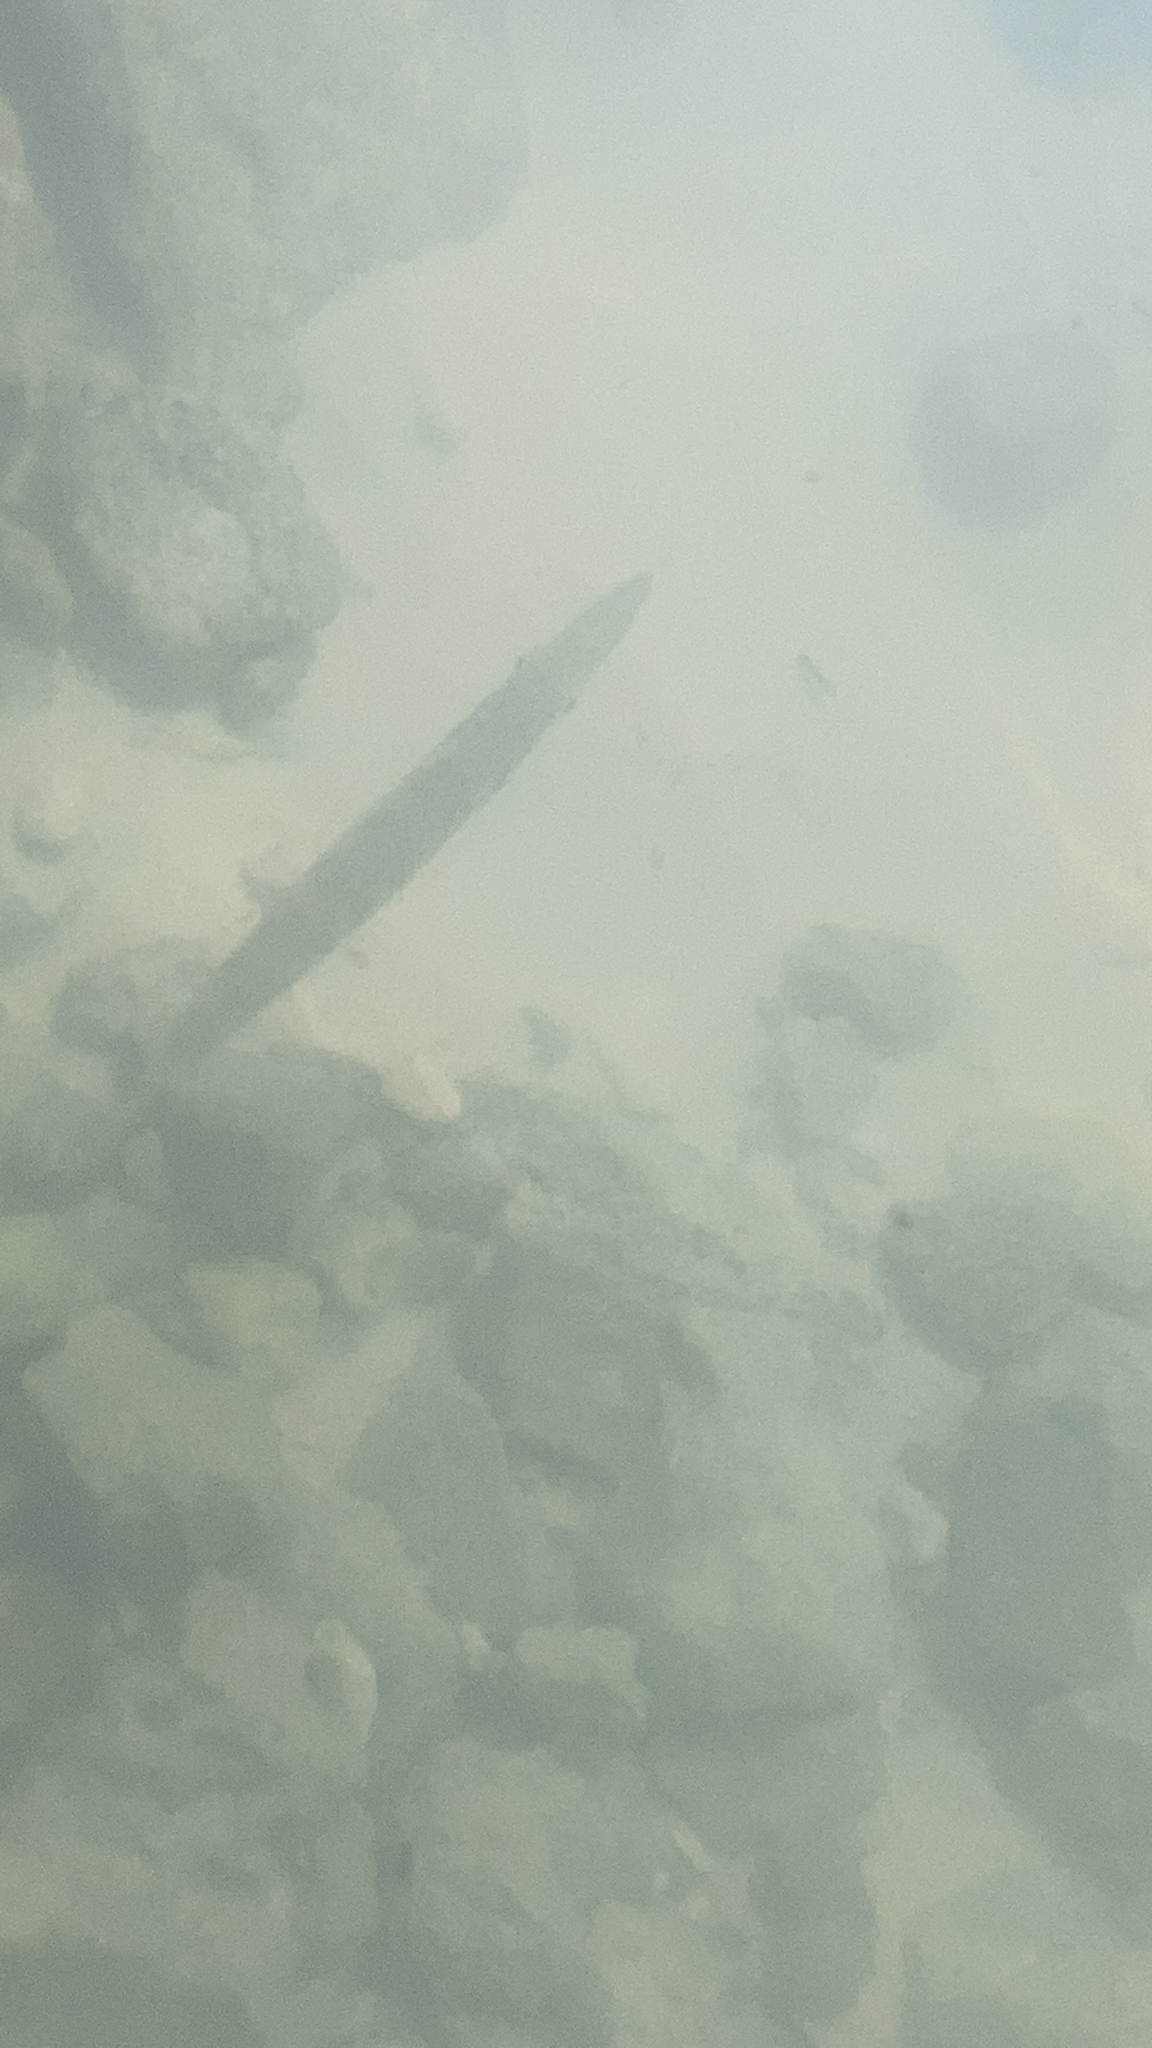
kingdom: Animalia
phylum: Chordata
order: Perciformes
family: Sphyraenidae
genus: Sphyraena
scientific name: Sphyraena barracuda
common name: Great barracuda
